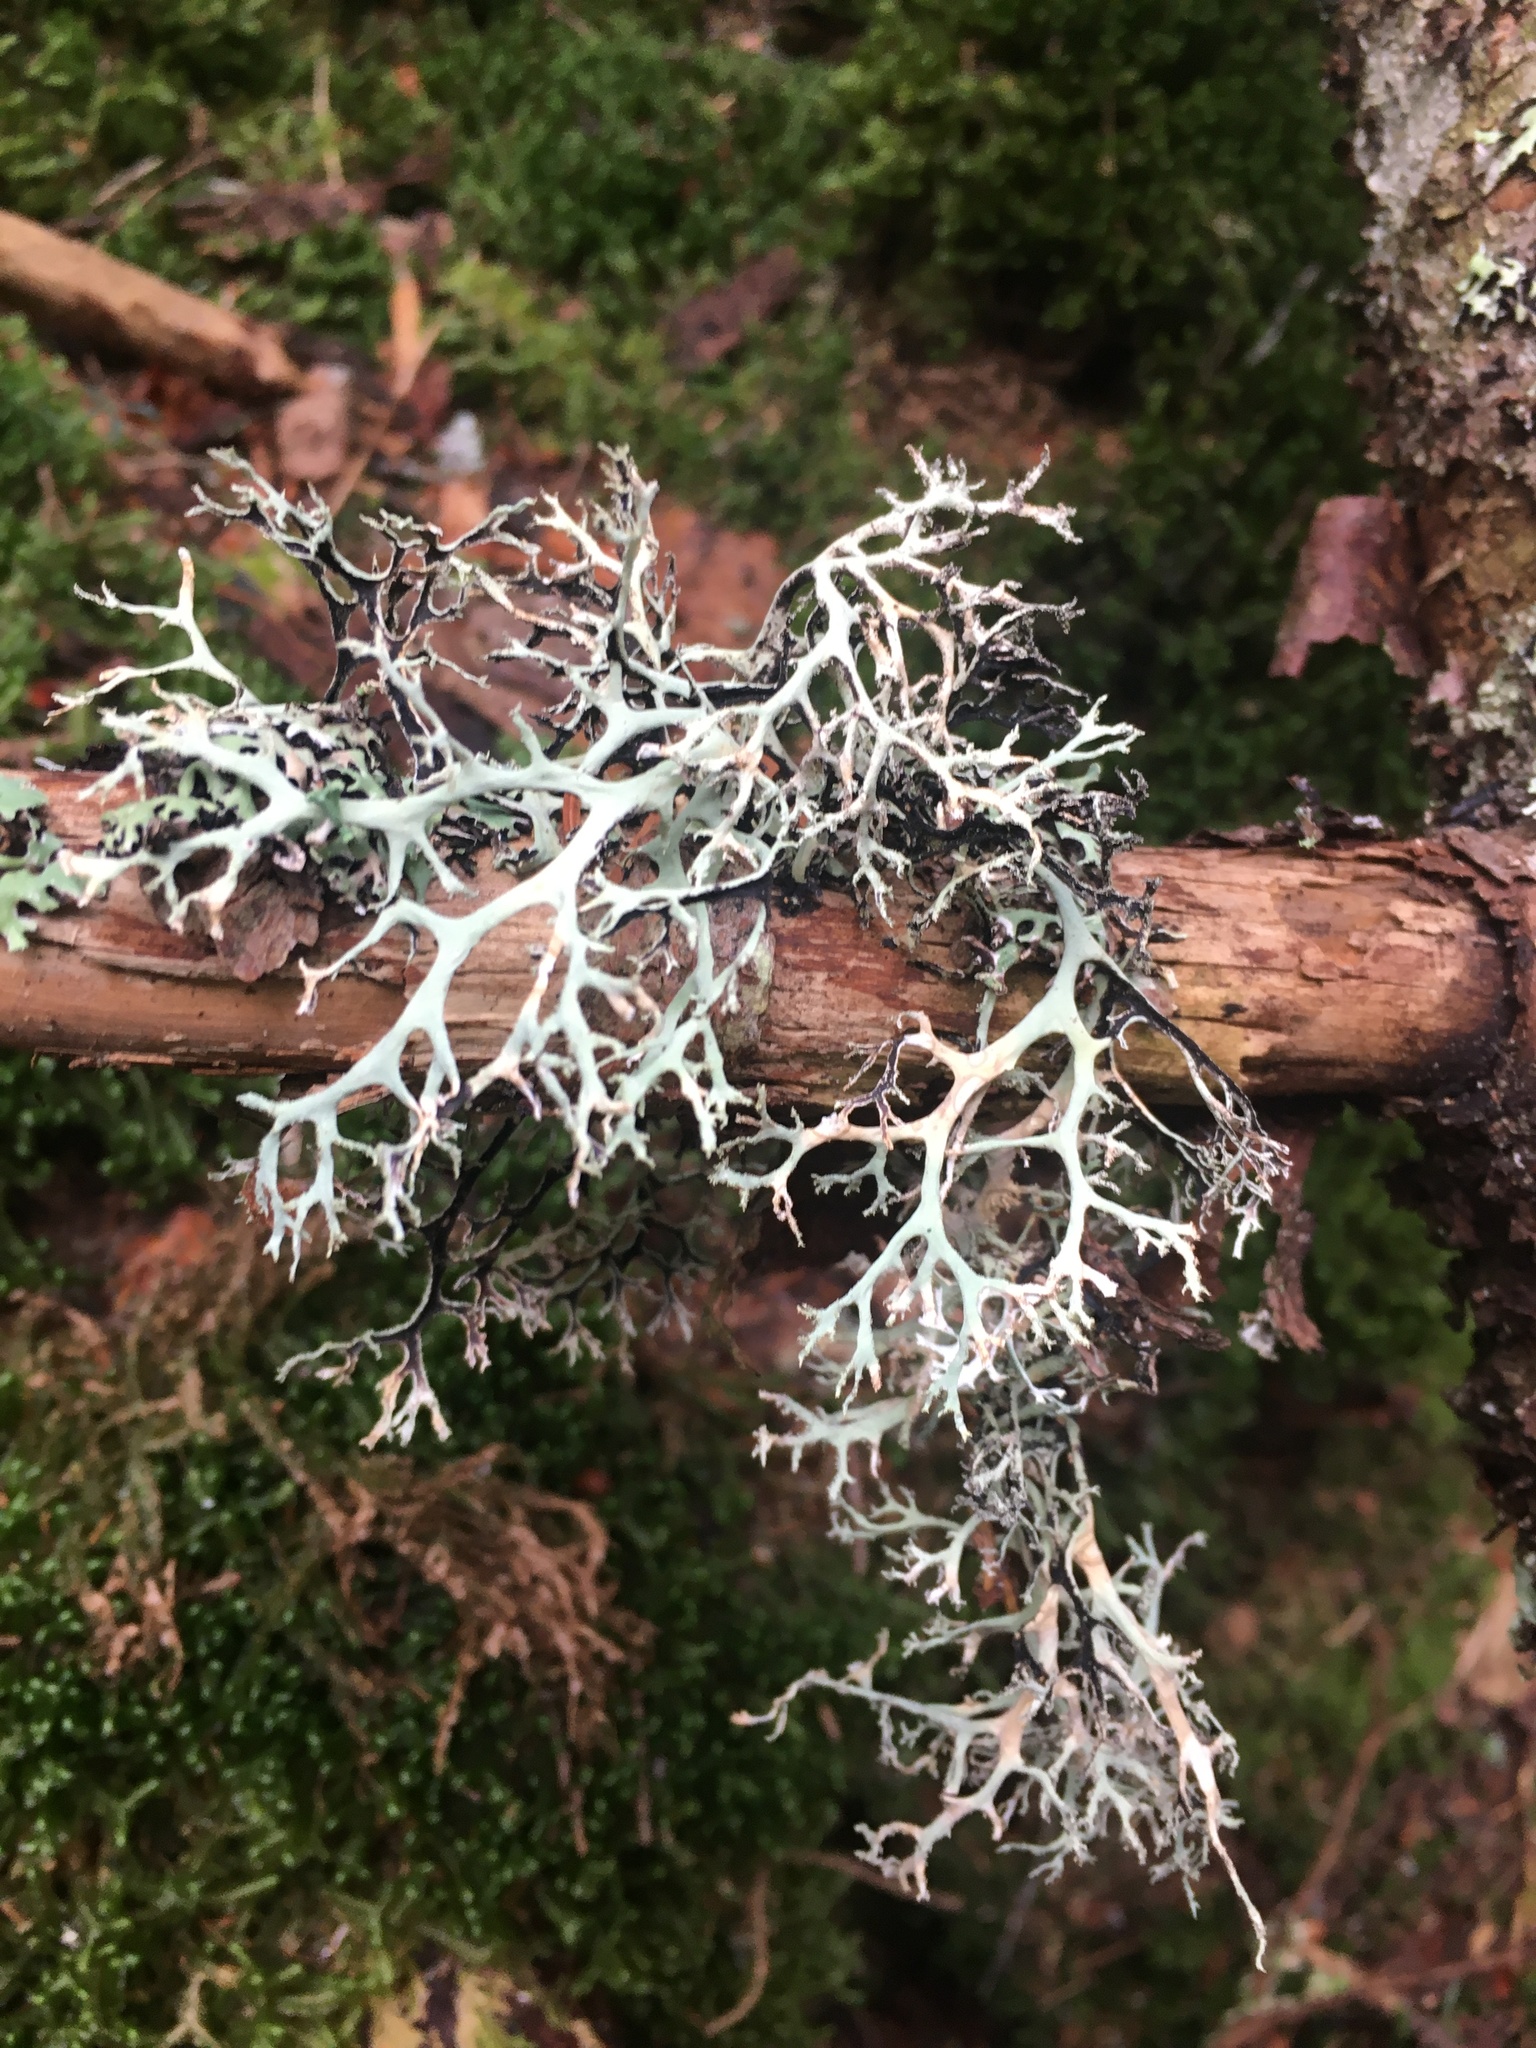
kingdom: Fungi
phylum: Ascomycota
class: Lecanoromycetes
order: Lecanorales
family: Parmeliaceae
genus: Pseudevernia
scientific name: Pseudevernia consocians
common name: Common antler lichen
